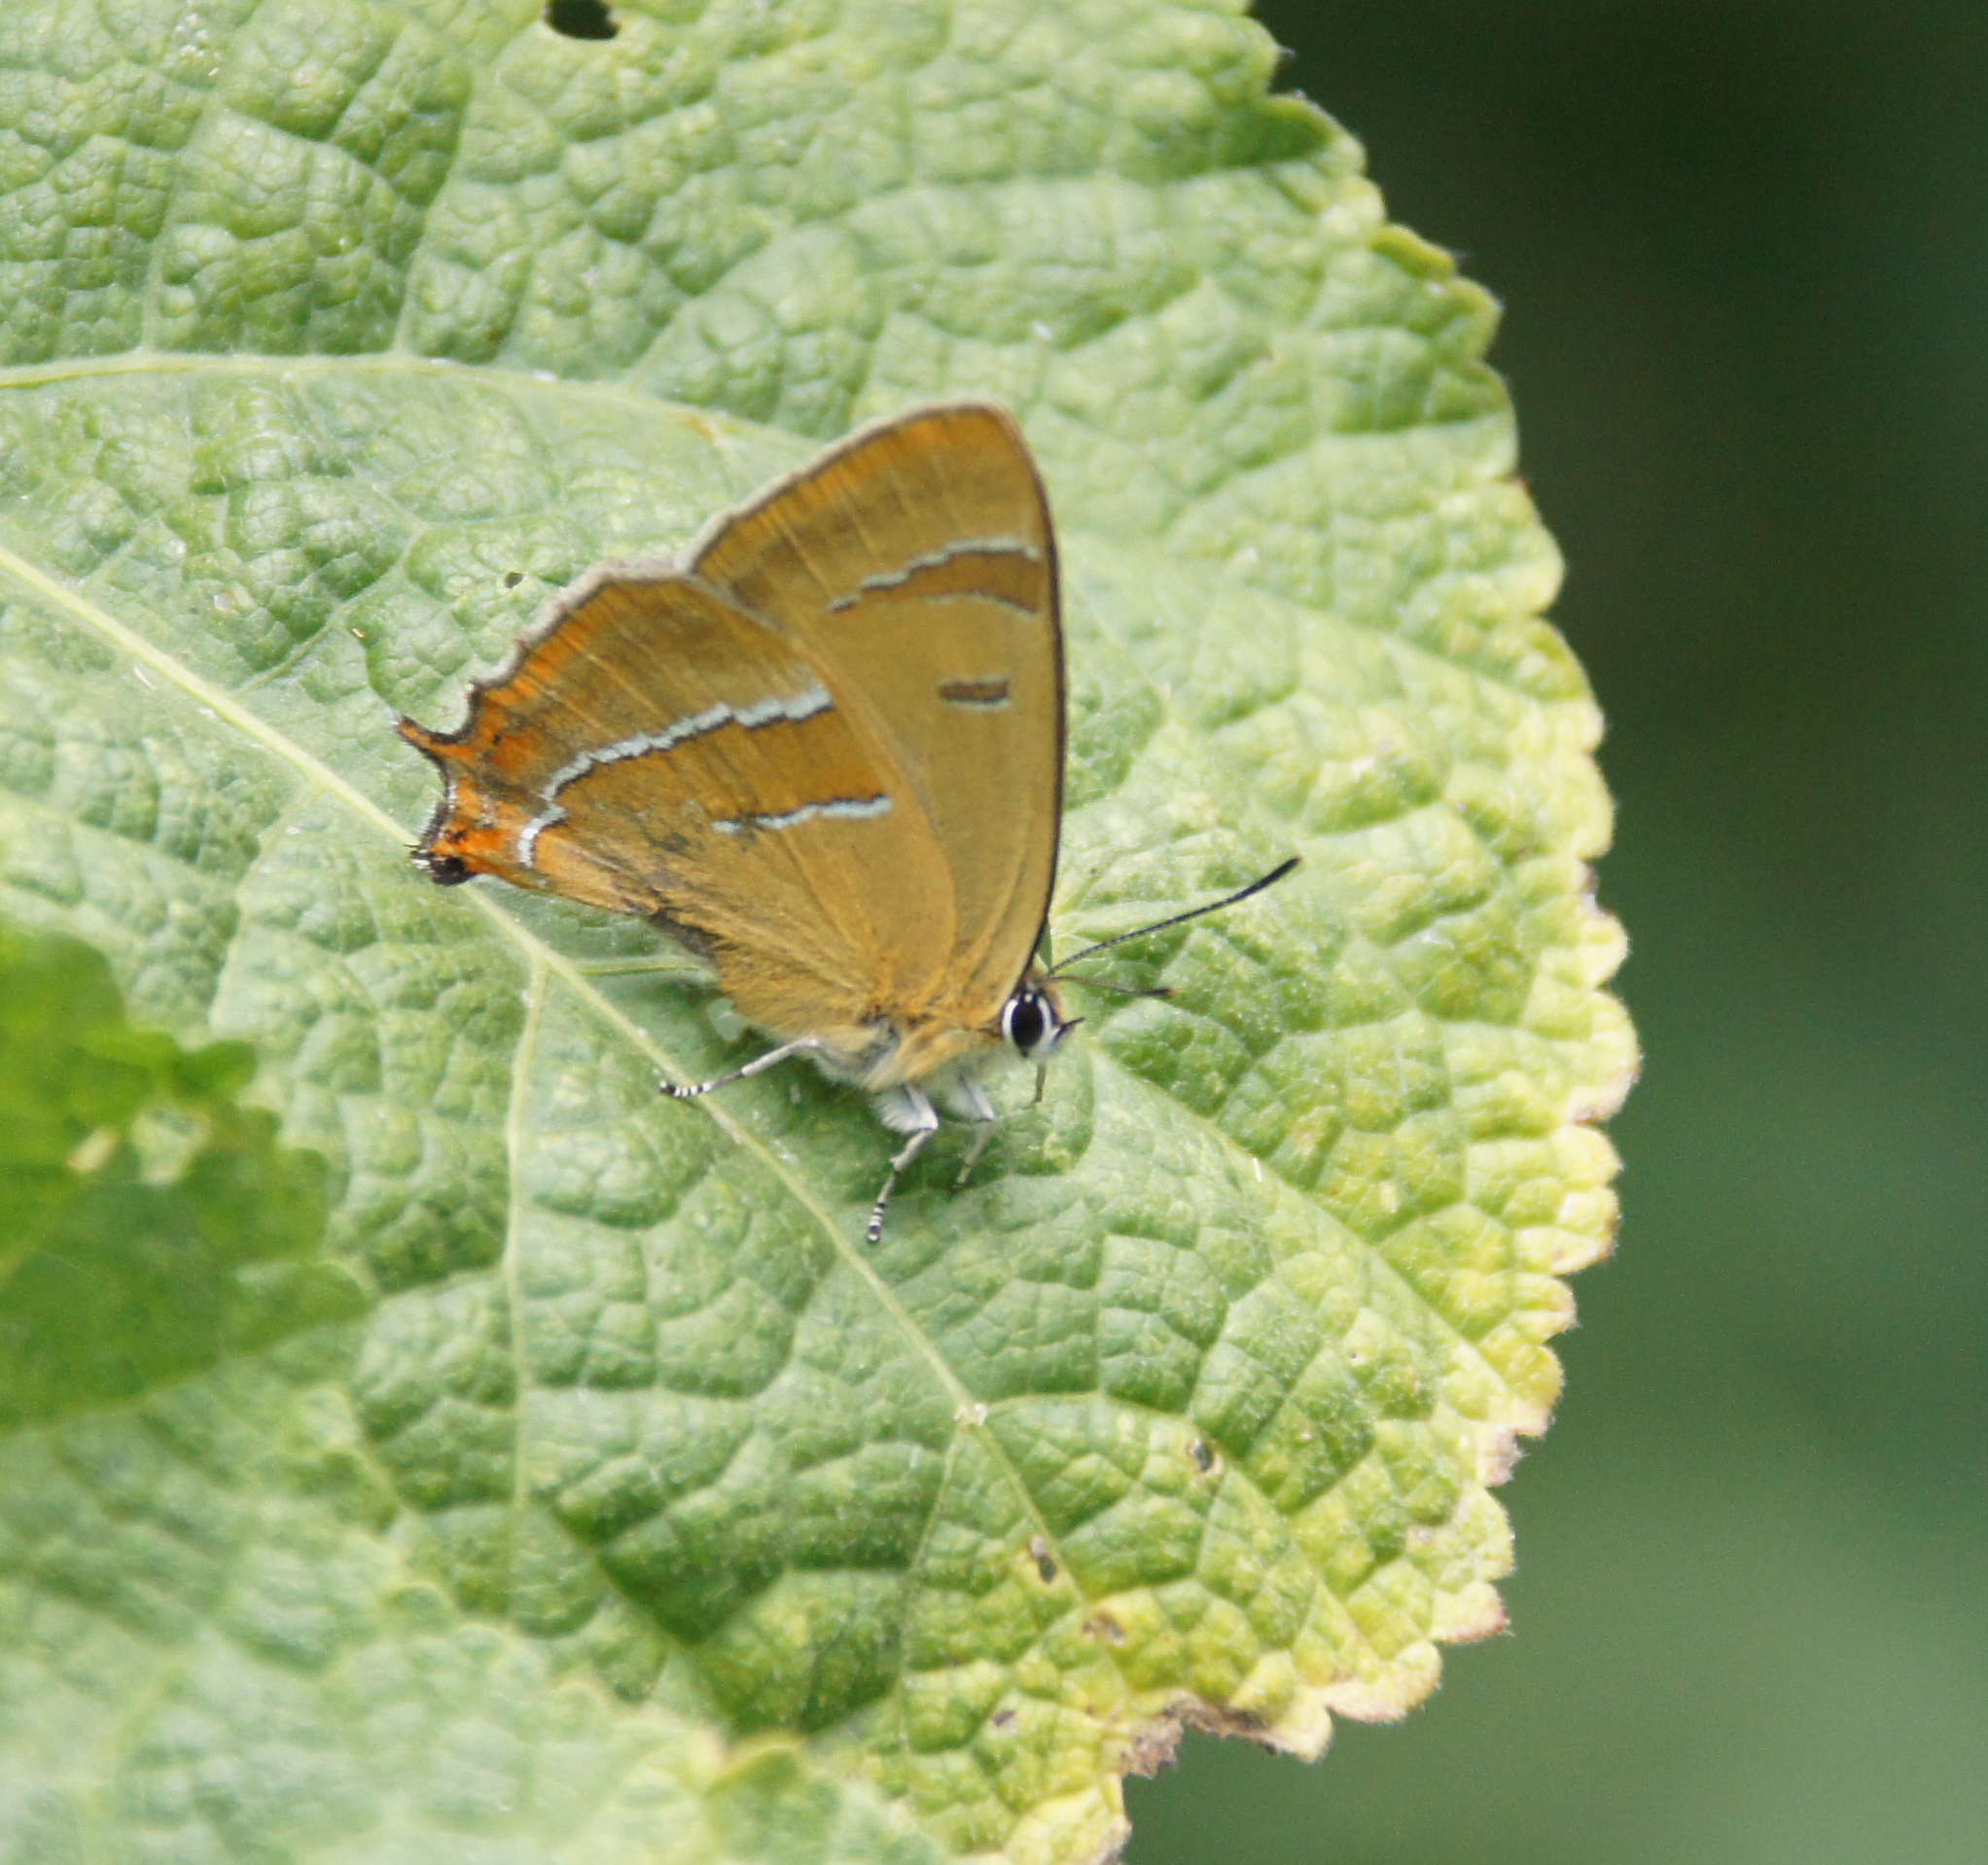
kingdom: Animalia
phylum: Arthropoda
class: Insecta
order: Lepidoptera
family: Lycaenidae
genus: Thecla
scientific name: Thecla betulae
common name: Brown hairstreak
